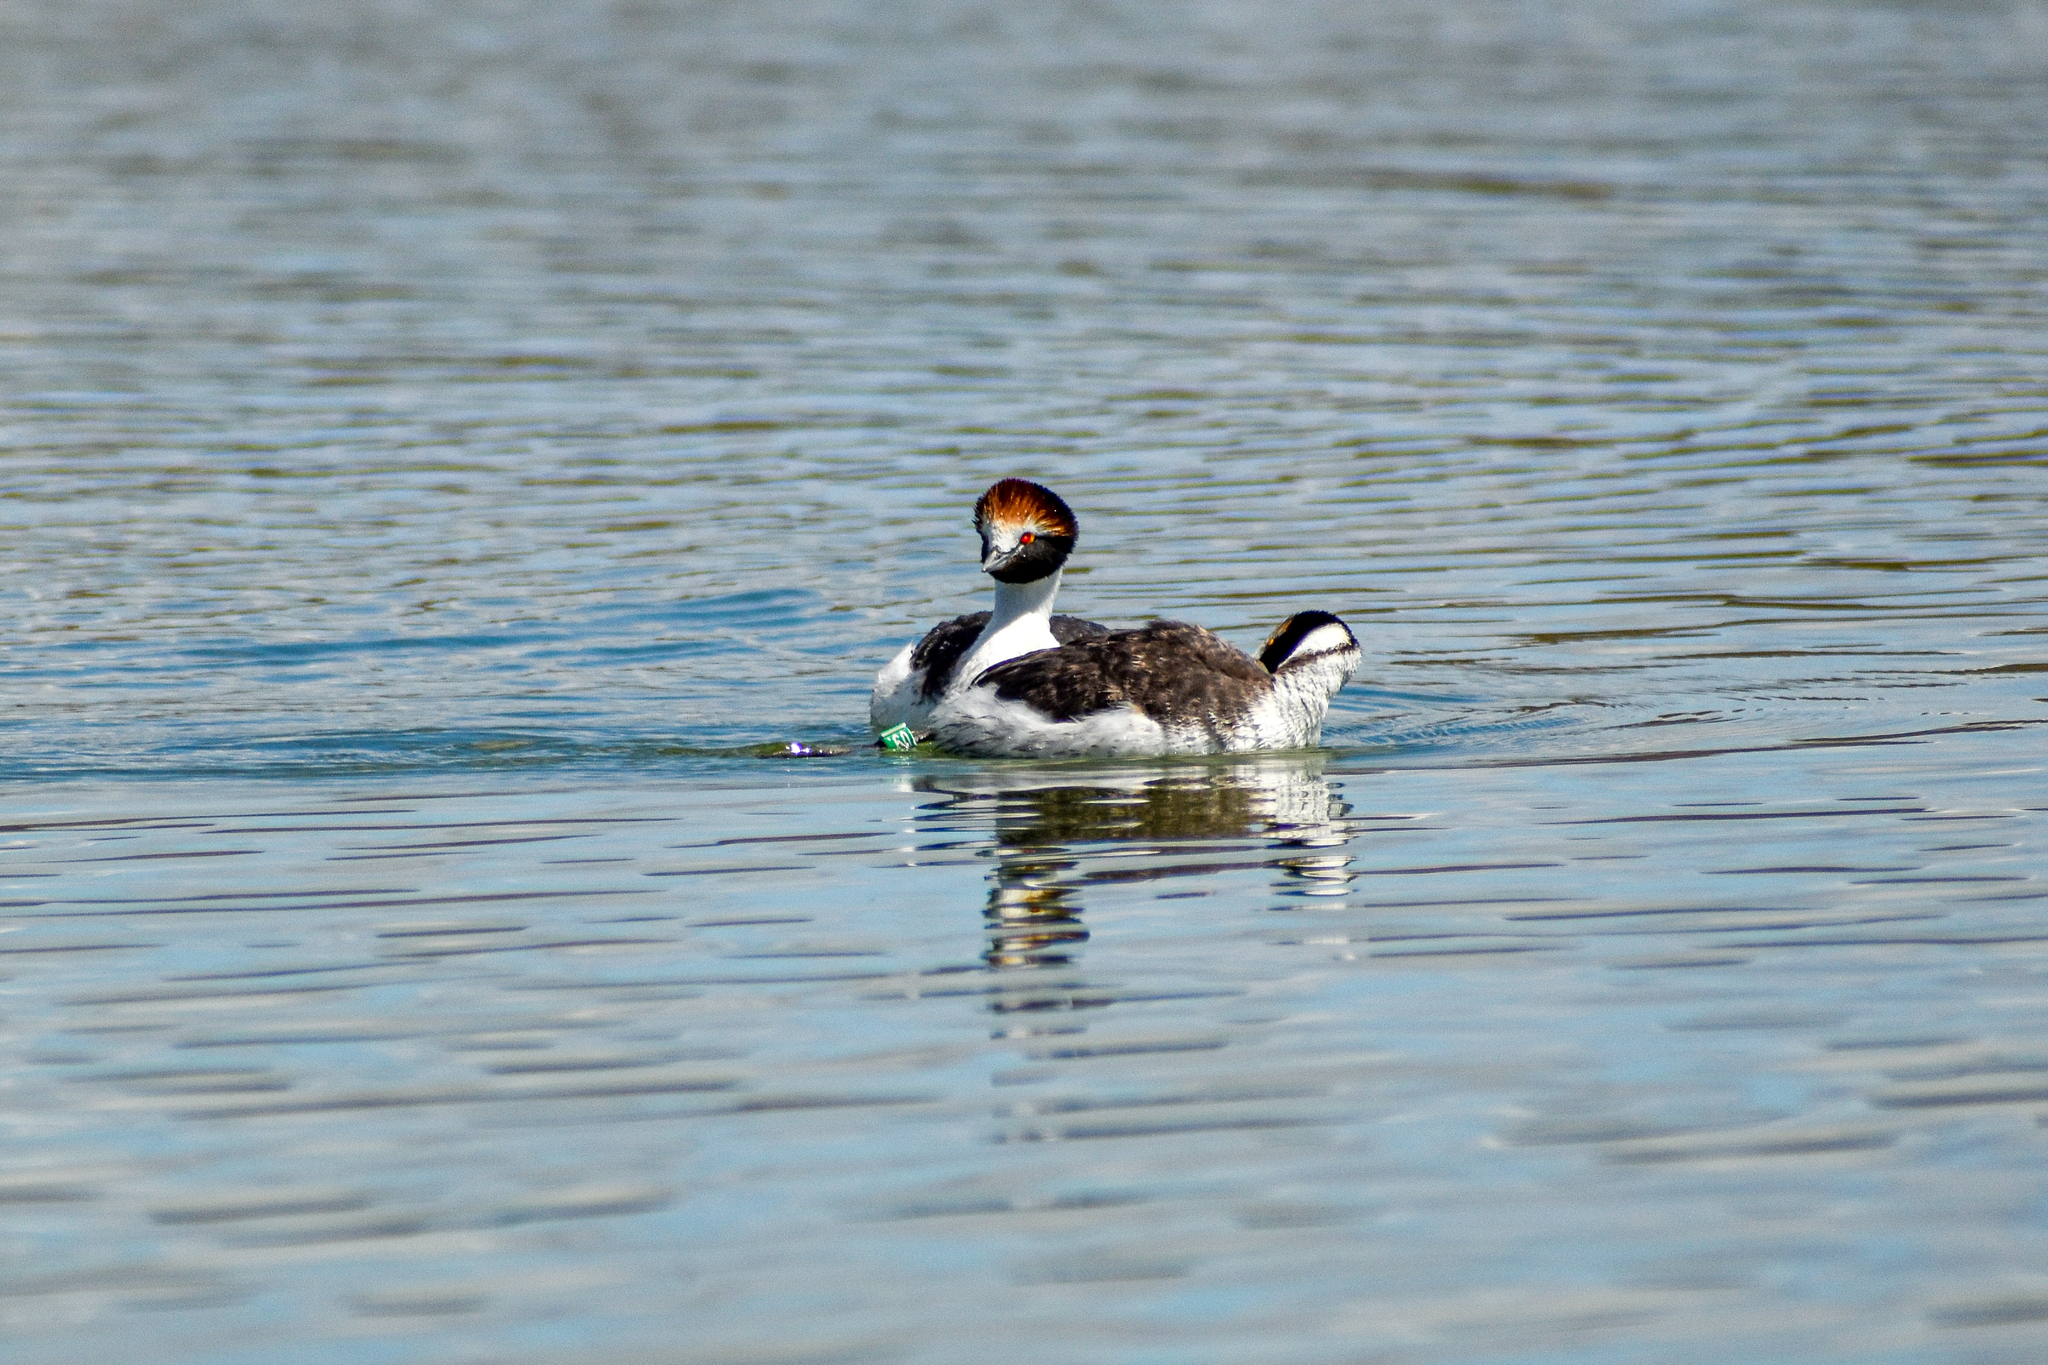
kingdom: Animalia
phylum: Chordata
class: Aves
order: Podicipediformes
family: Podicipedidae
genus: Podiceps
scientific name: Podiceps gallardoi
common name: Hooded grebe
